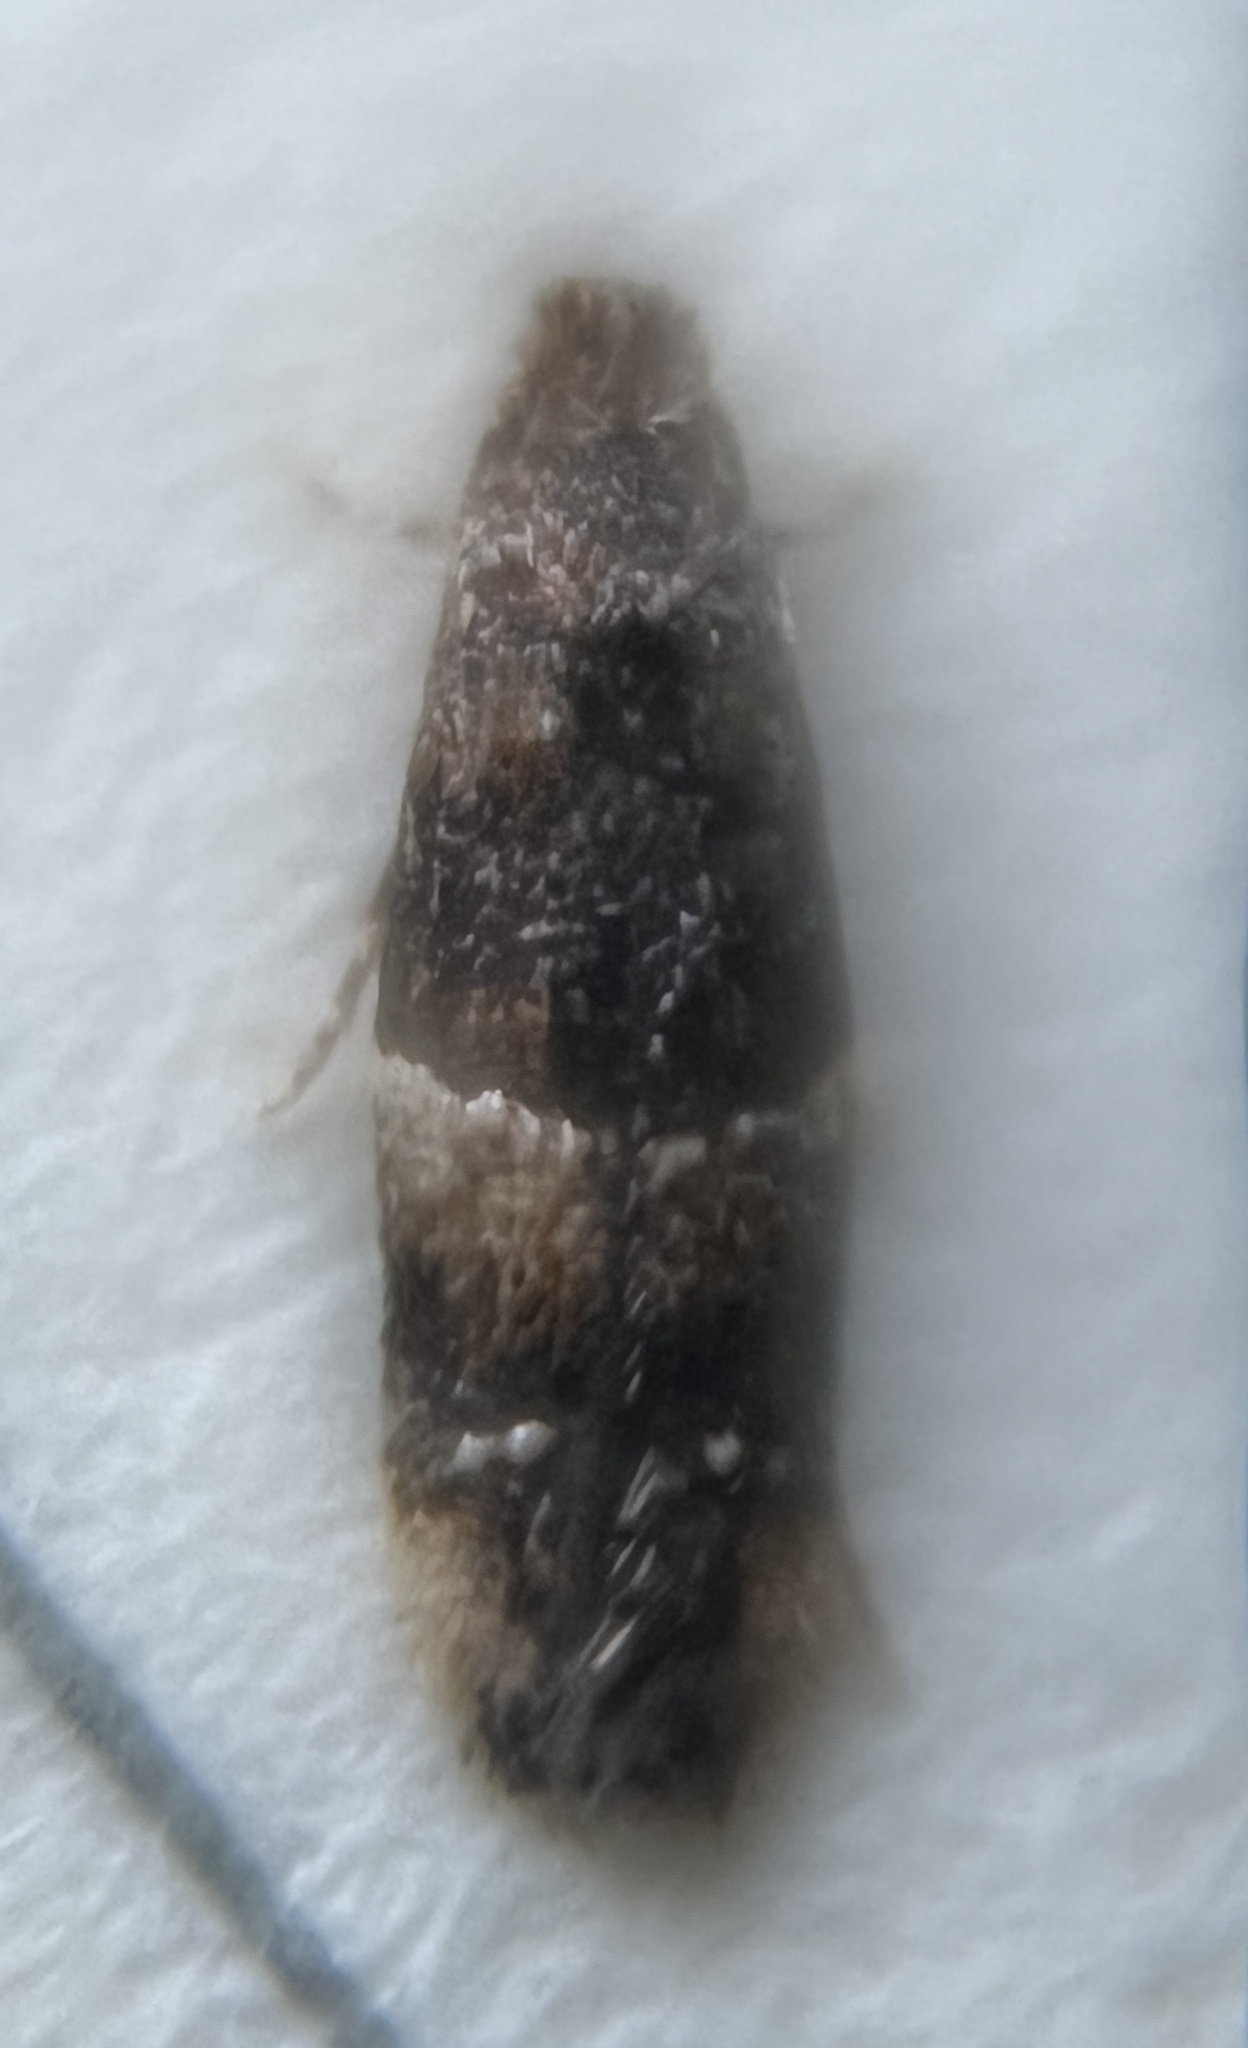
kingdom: Animalia
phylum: Arthropoda
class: Insecta
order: Lepidoptera
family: Meessiidae
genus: Oenoe
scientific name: Oenoe euphrantis
